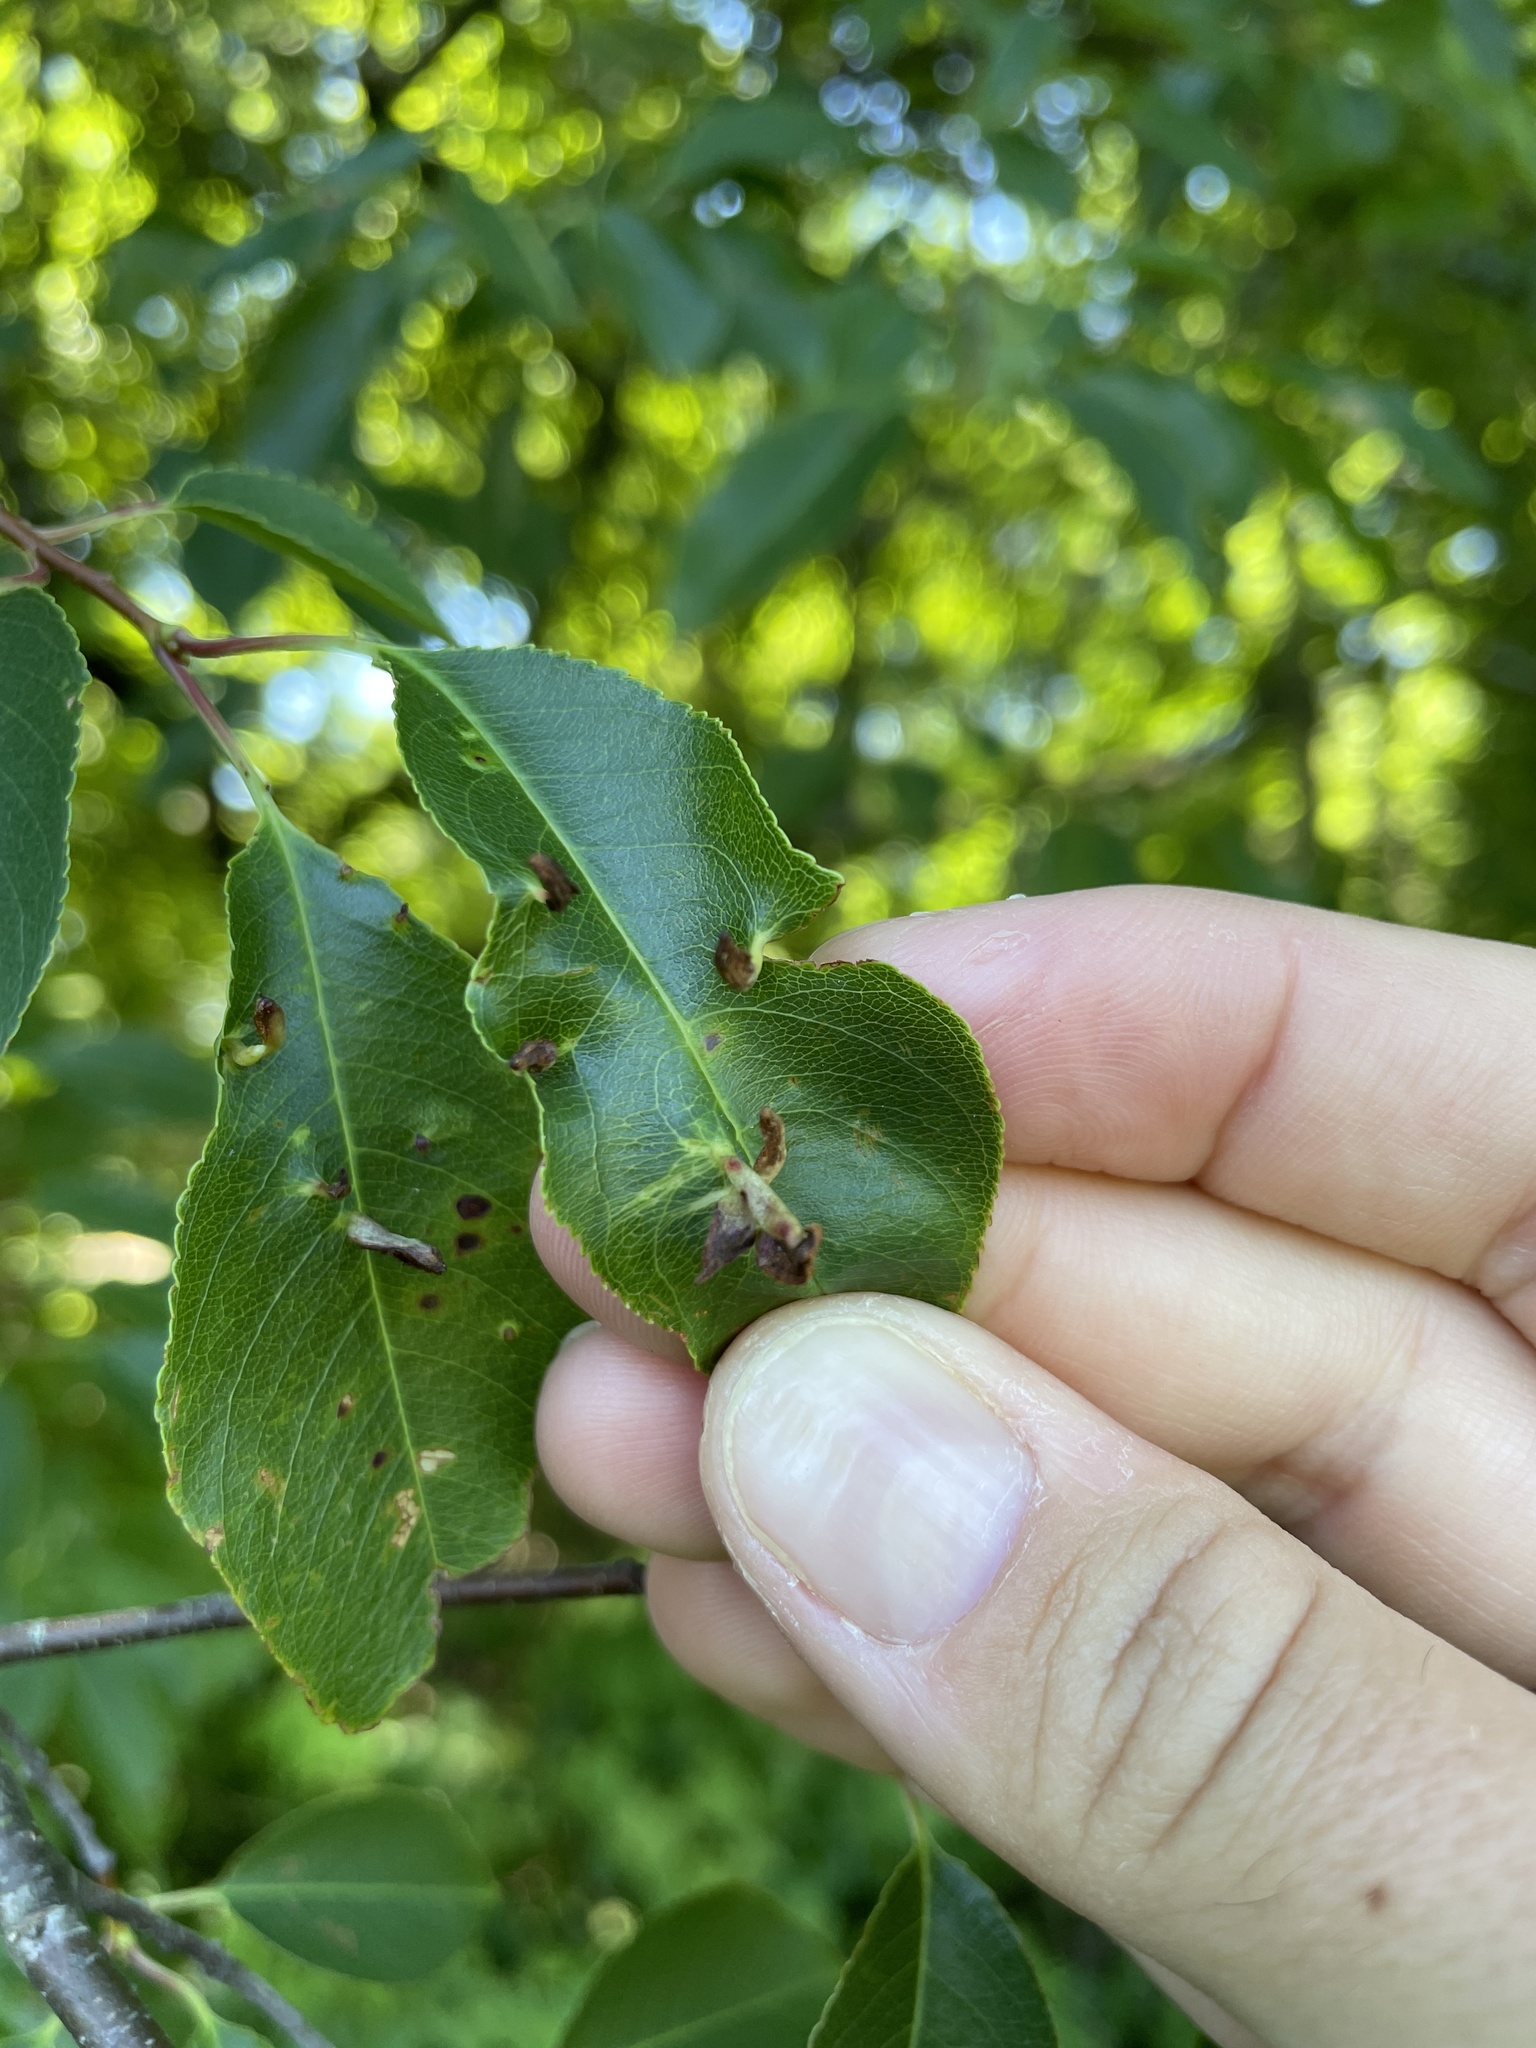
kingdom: Animalia
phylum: Arthropoda
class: Arachnida
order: Trombidiformes
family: Eriophyidae
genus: Eriophyes
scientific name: Eriophyes
